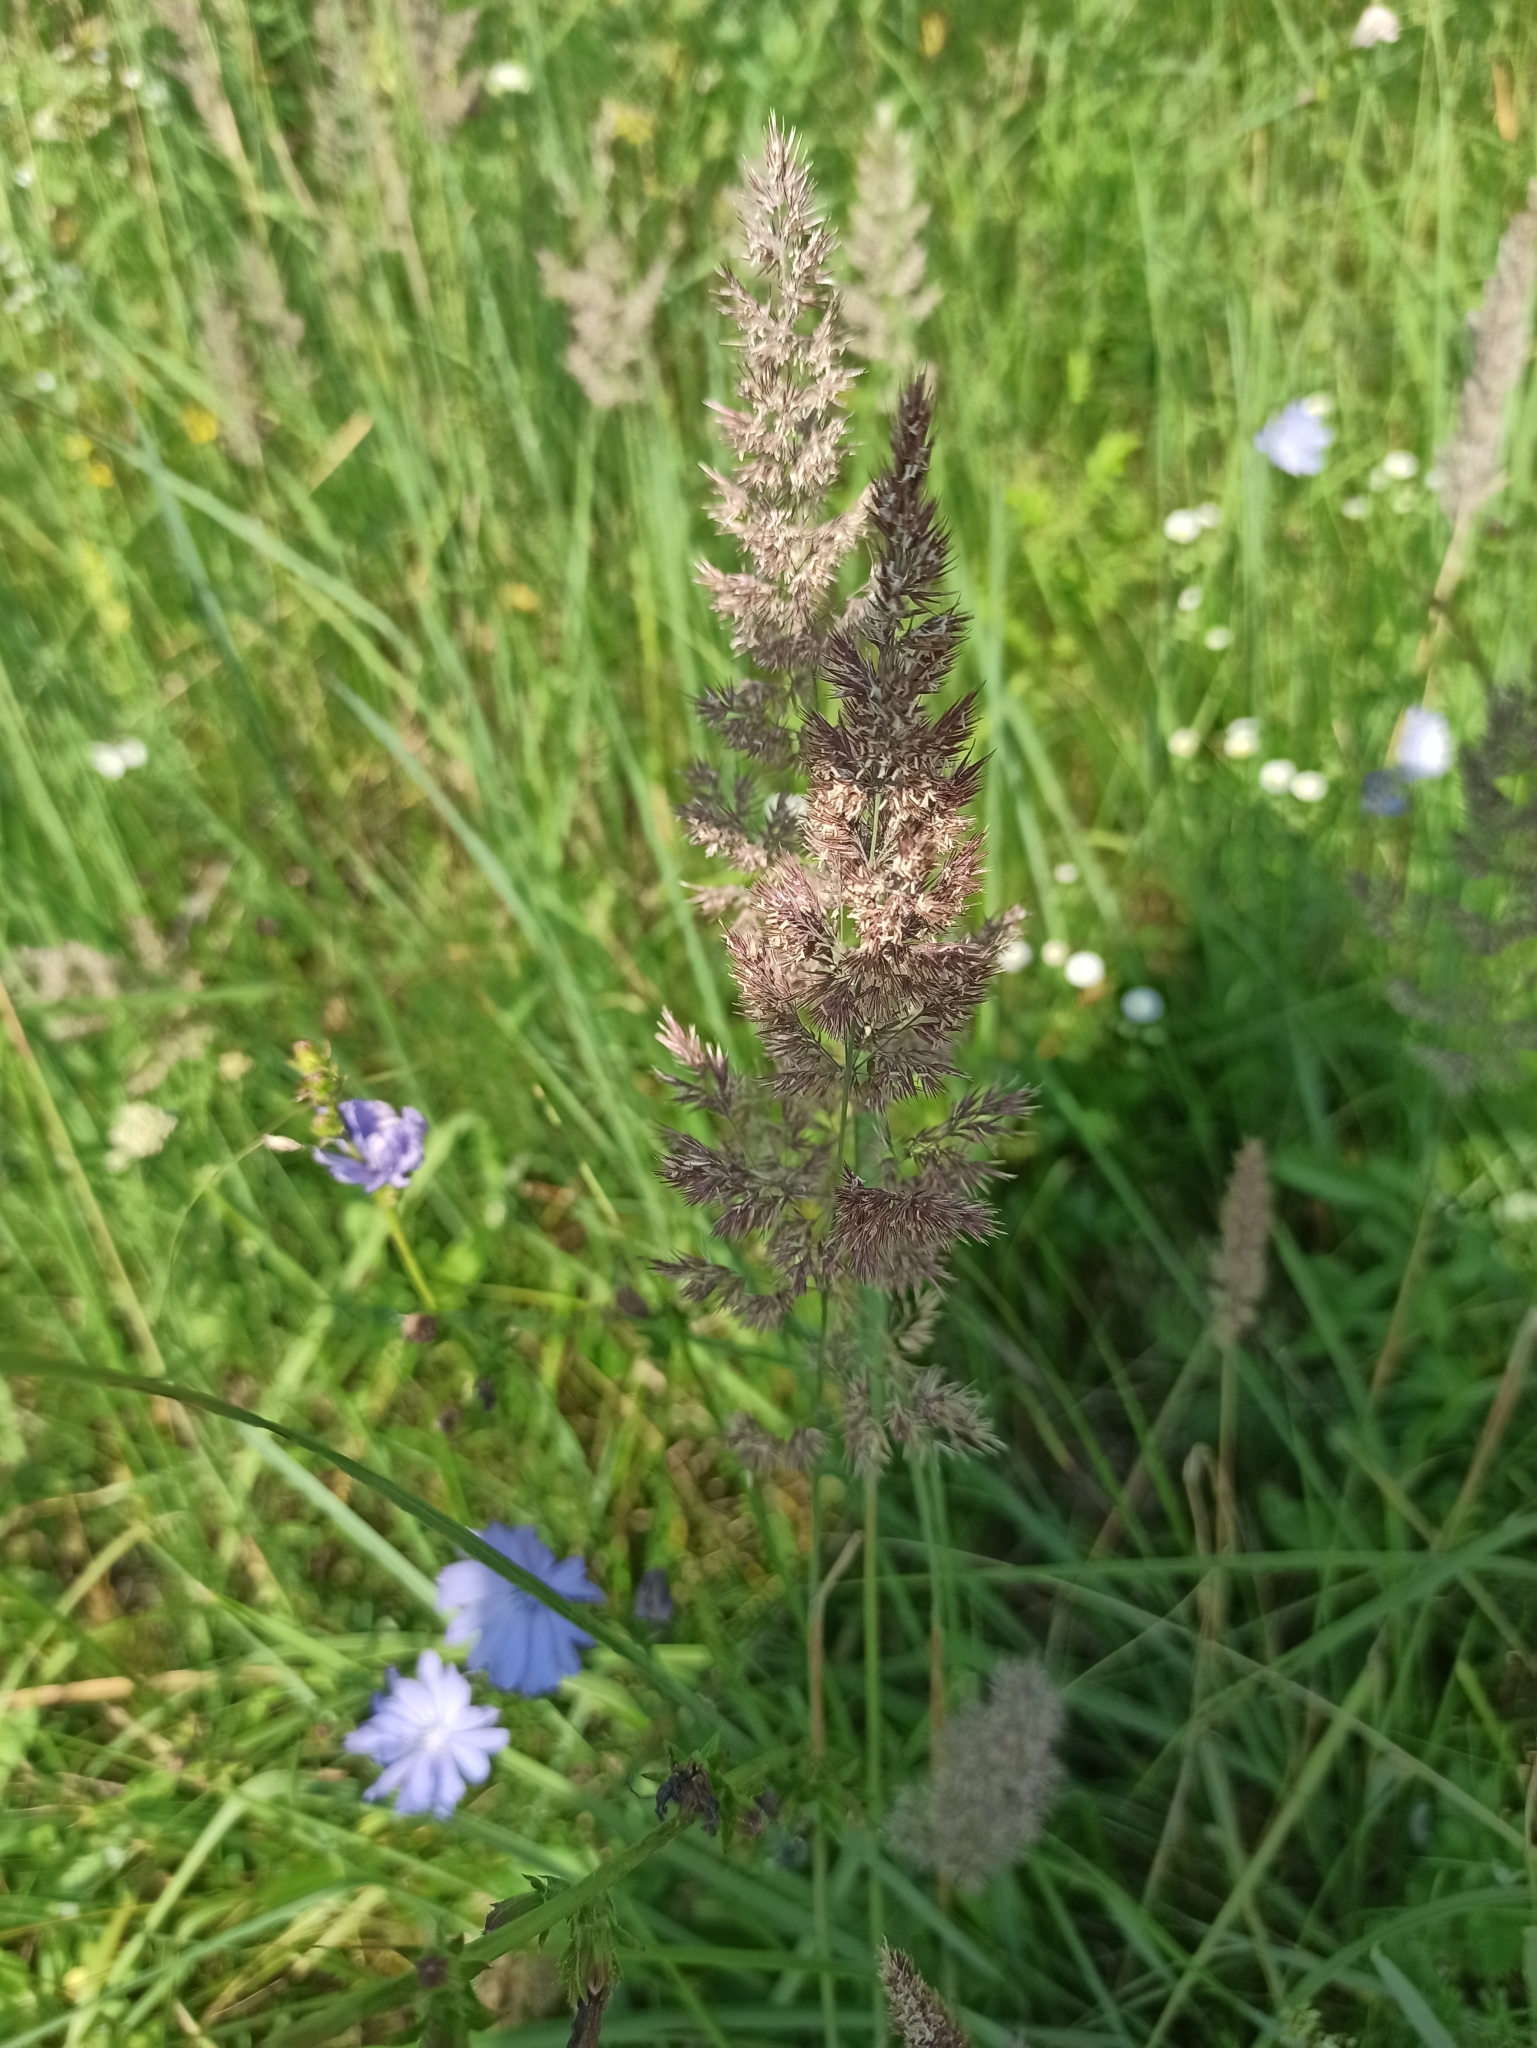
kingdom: Plantae
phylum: Tracheophyta
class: Liliopsida
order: Poales
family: Poaceae
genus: Calamagrostis
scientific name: Calamagrostis epigejos
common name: Wood small-reed
